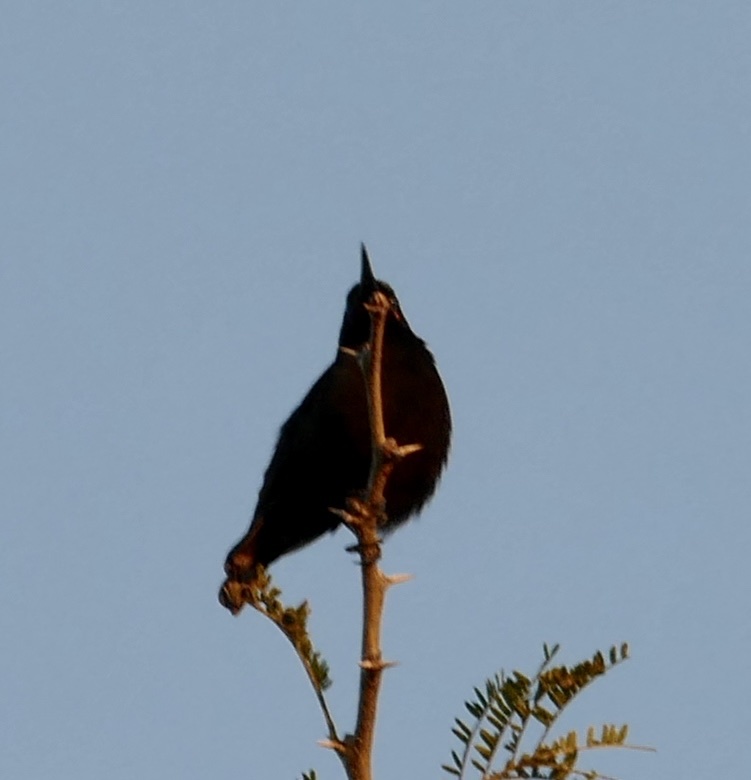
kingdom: Animalia
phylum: Chordata
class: Aves
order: Passeriformes
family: Nectariniidae
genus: Chalcomitra
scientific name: Chalcomitra amethystina
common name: Amethyst sunbird
